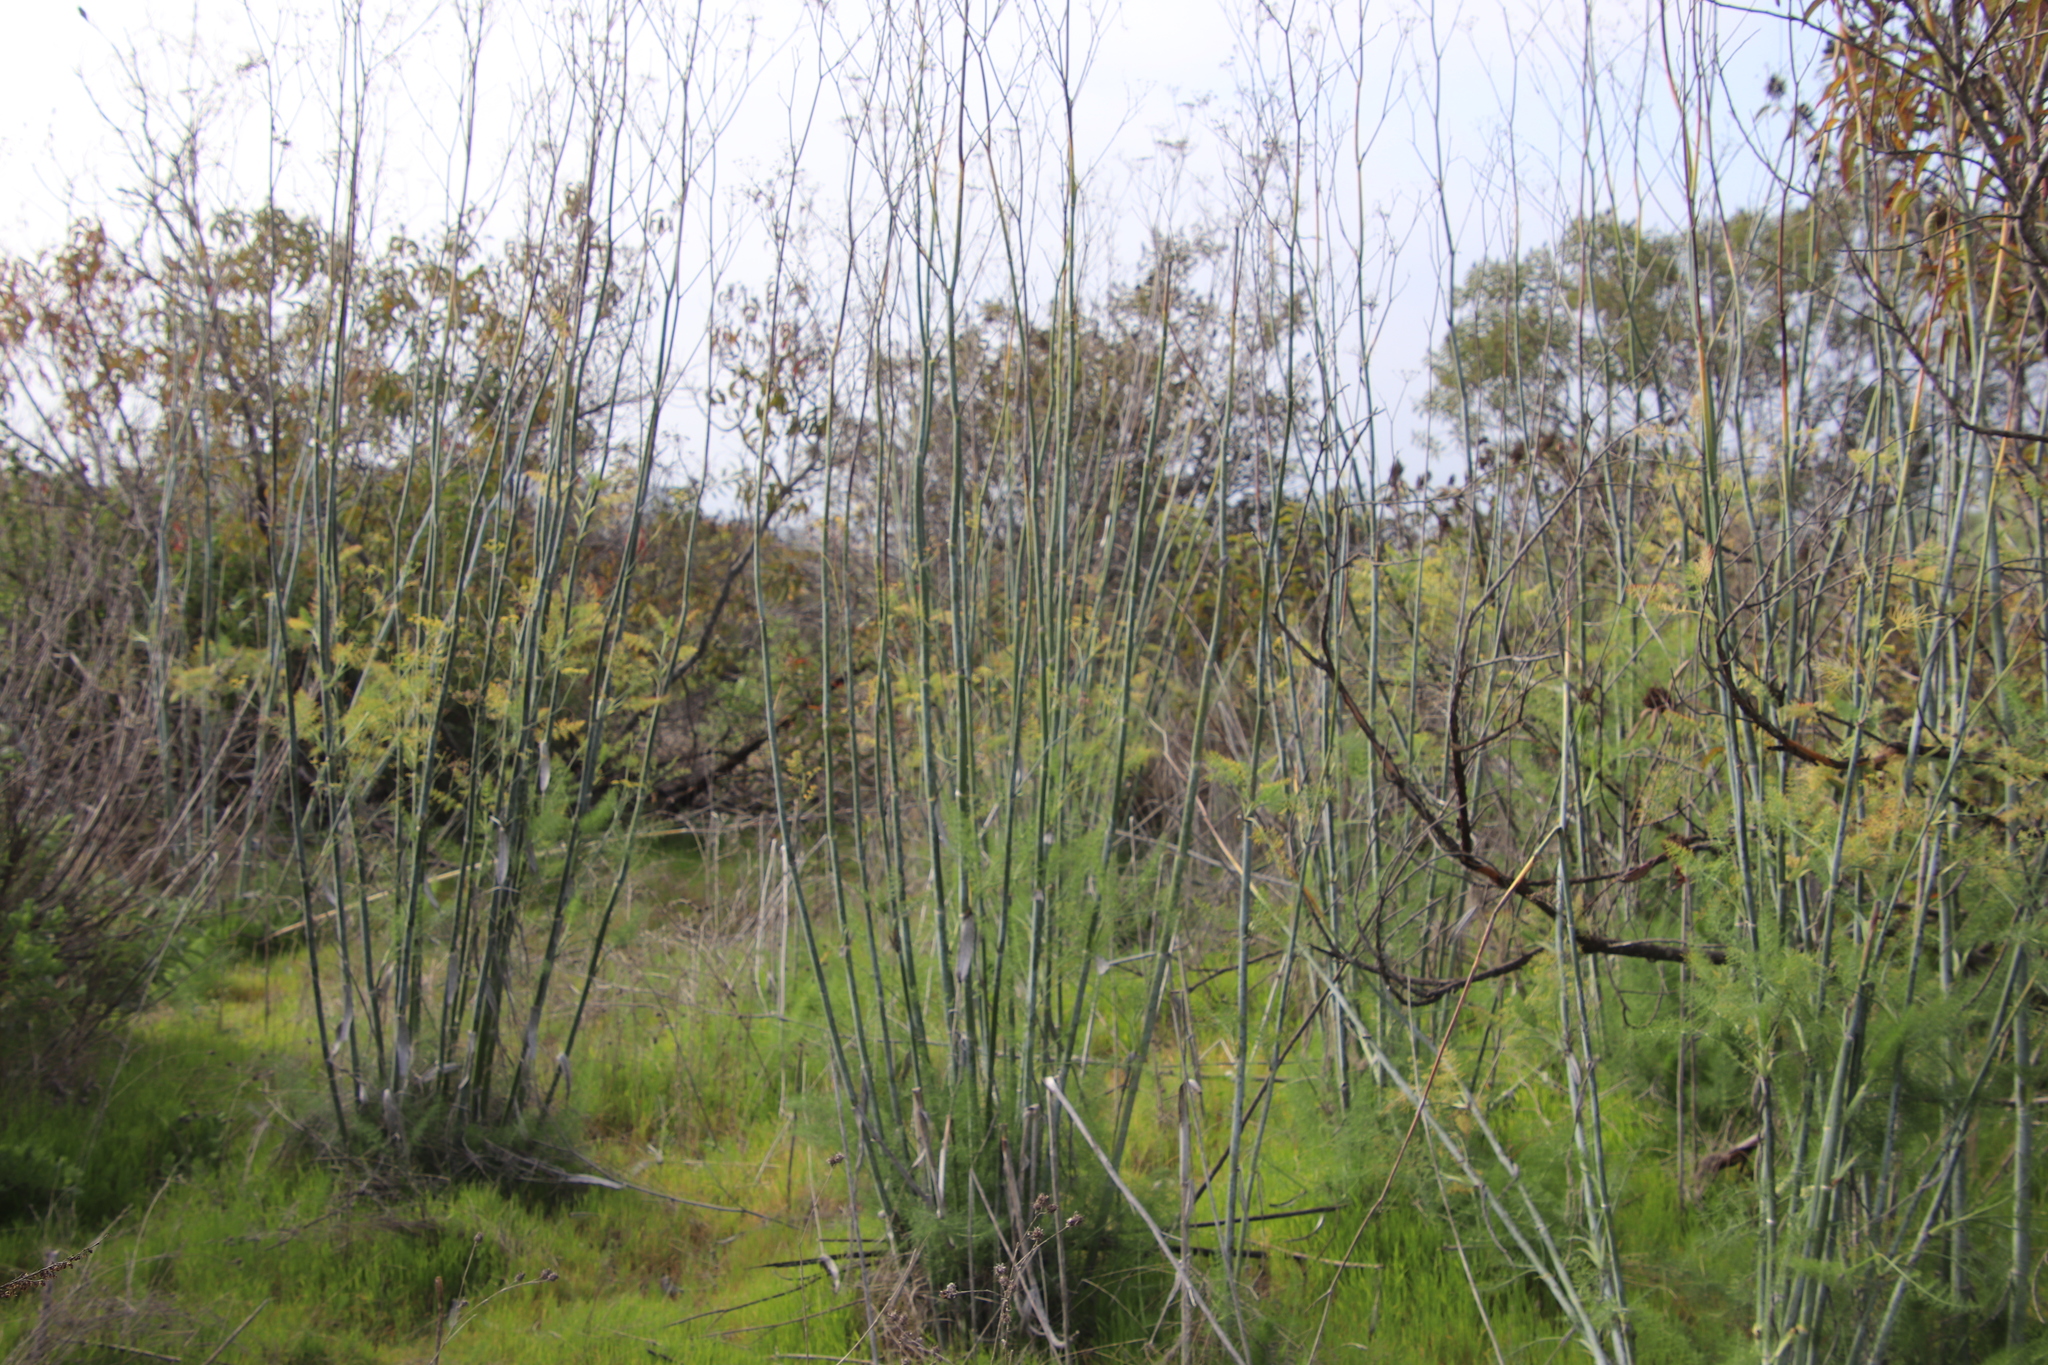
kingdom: Plantae
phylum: Tracheophyta
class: Magnoliopsida
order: Apiales
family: Apiaceae
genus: Foeniculum
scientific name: Foeniculum vulgare
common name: Fennel
